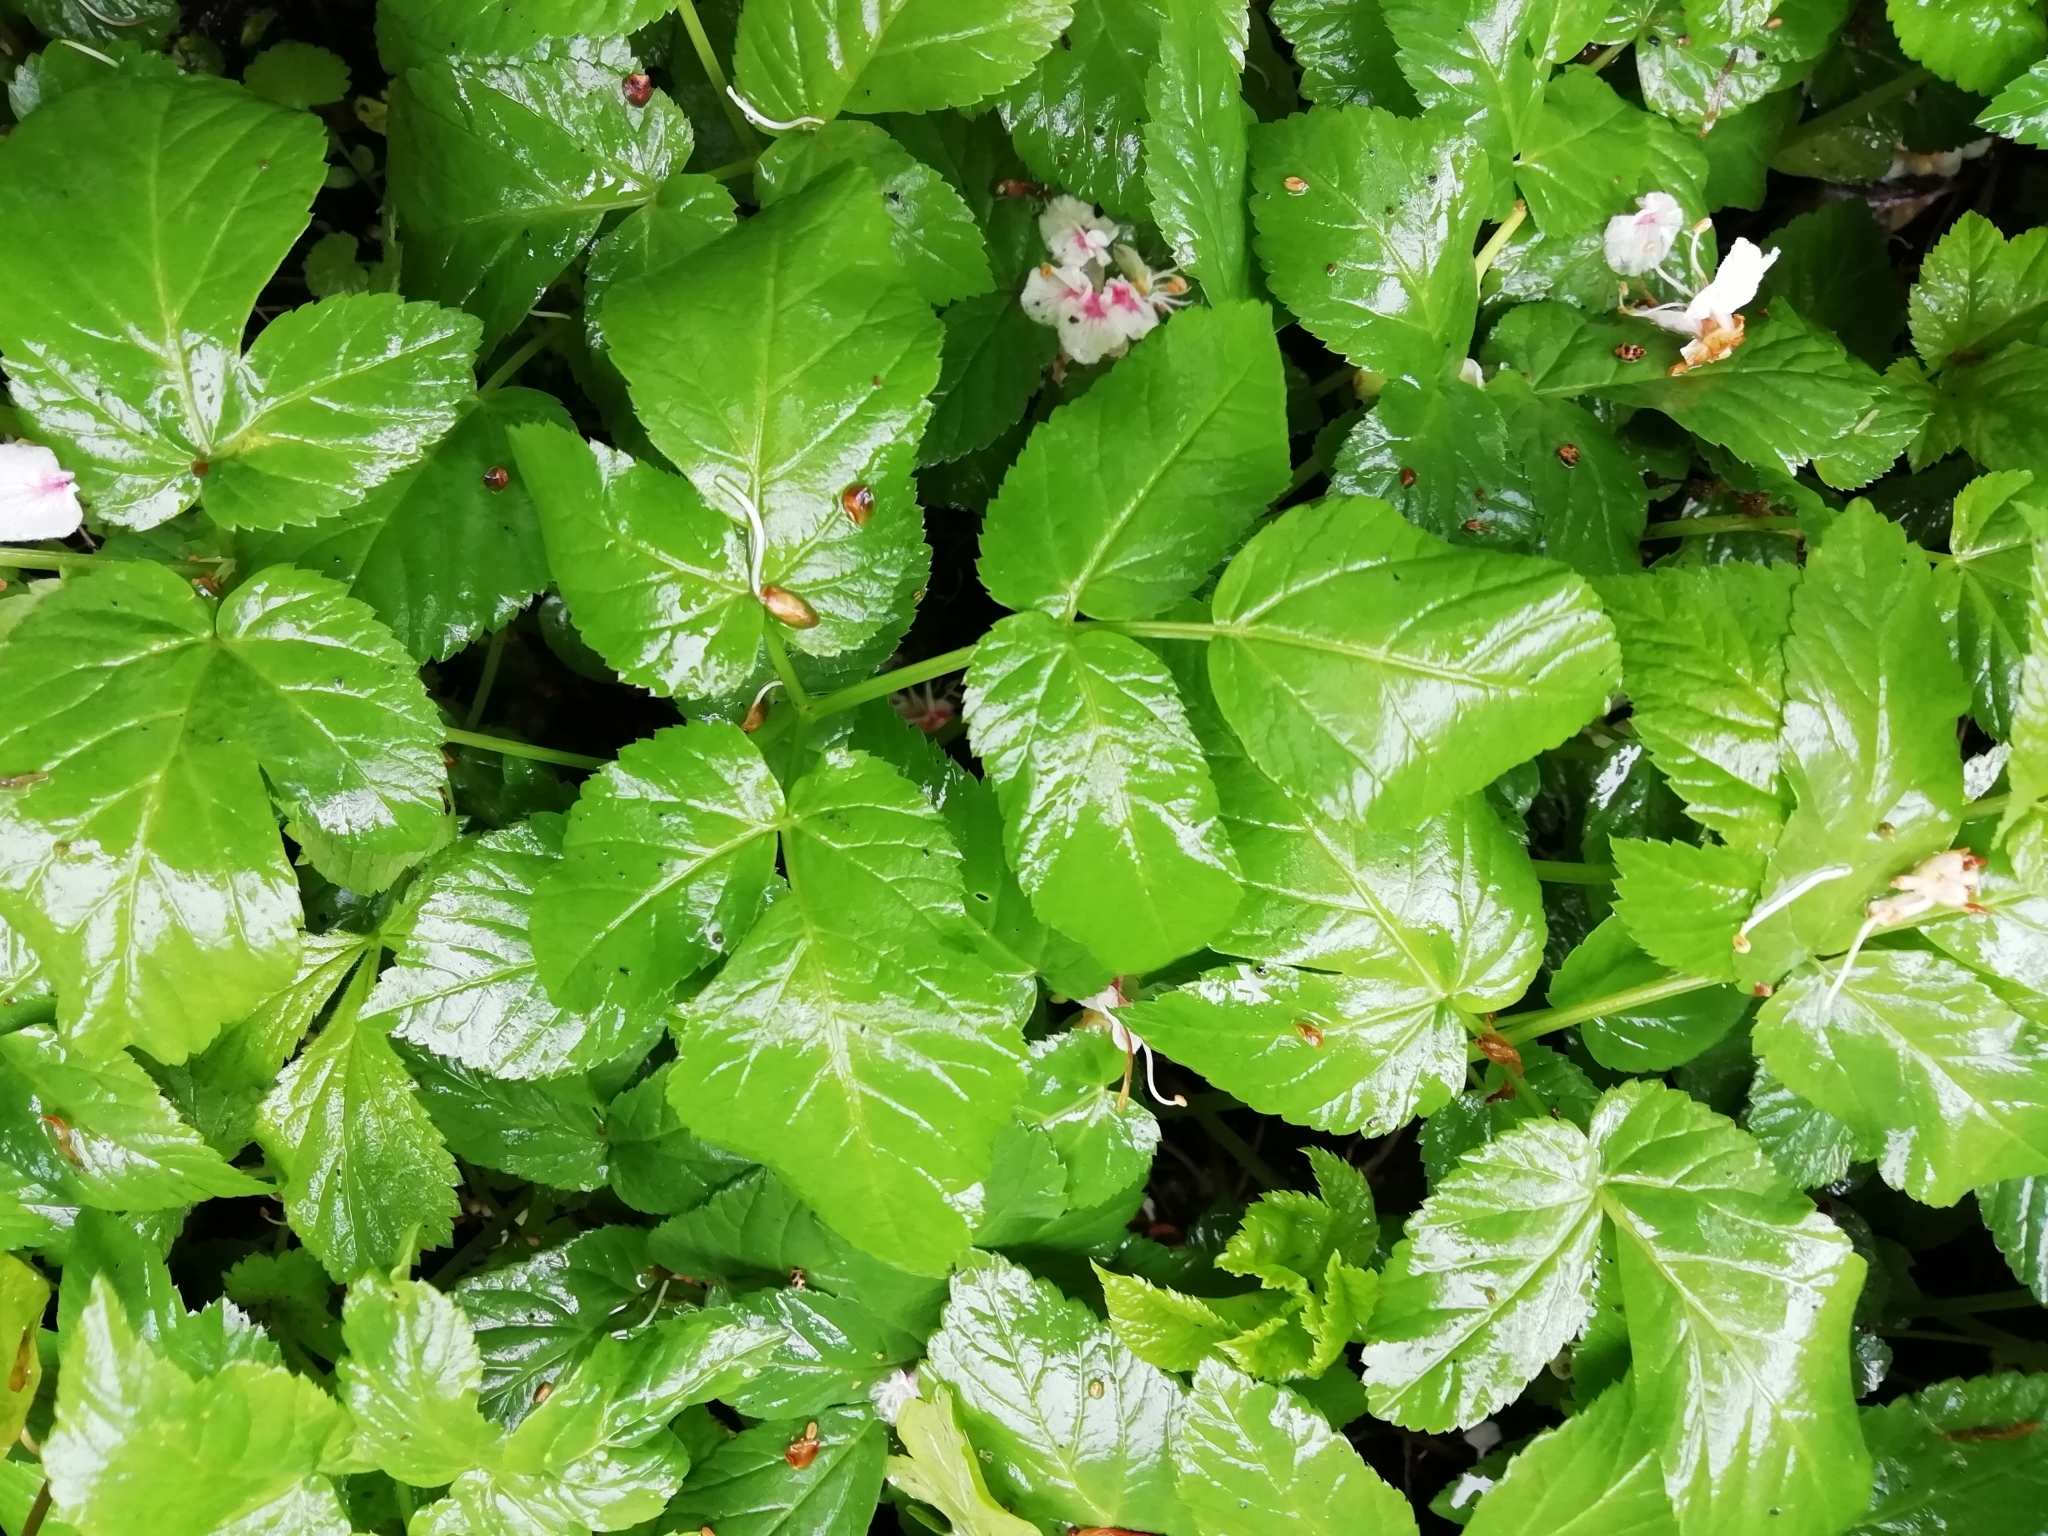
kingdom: Plantae
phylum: Tracheophyta
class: Magnoliopsida
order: Apiales
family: Apiaceae
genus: Aegopodium
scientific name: Aegopodium podagraria
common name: Ground-elder
